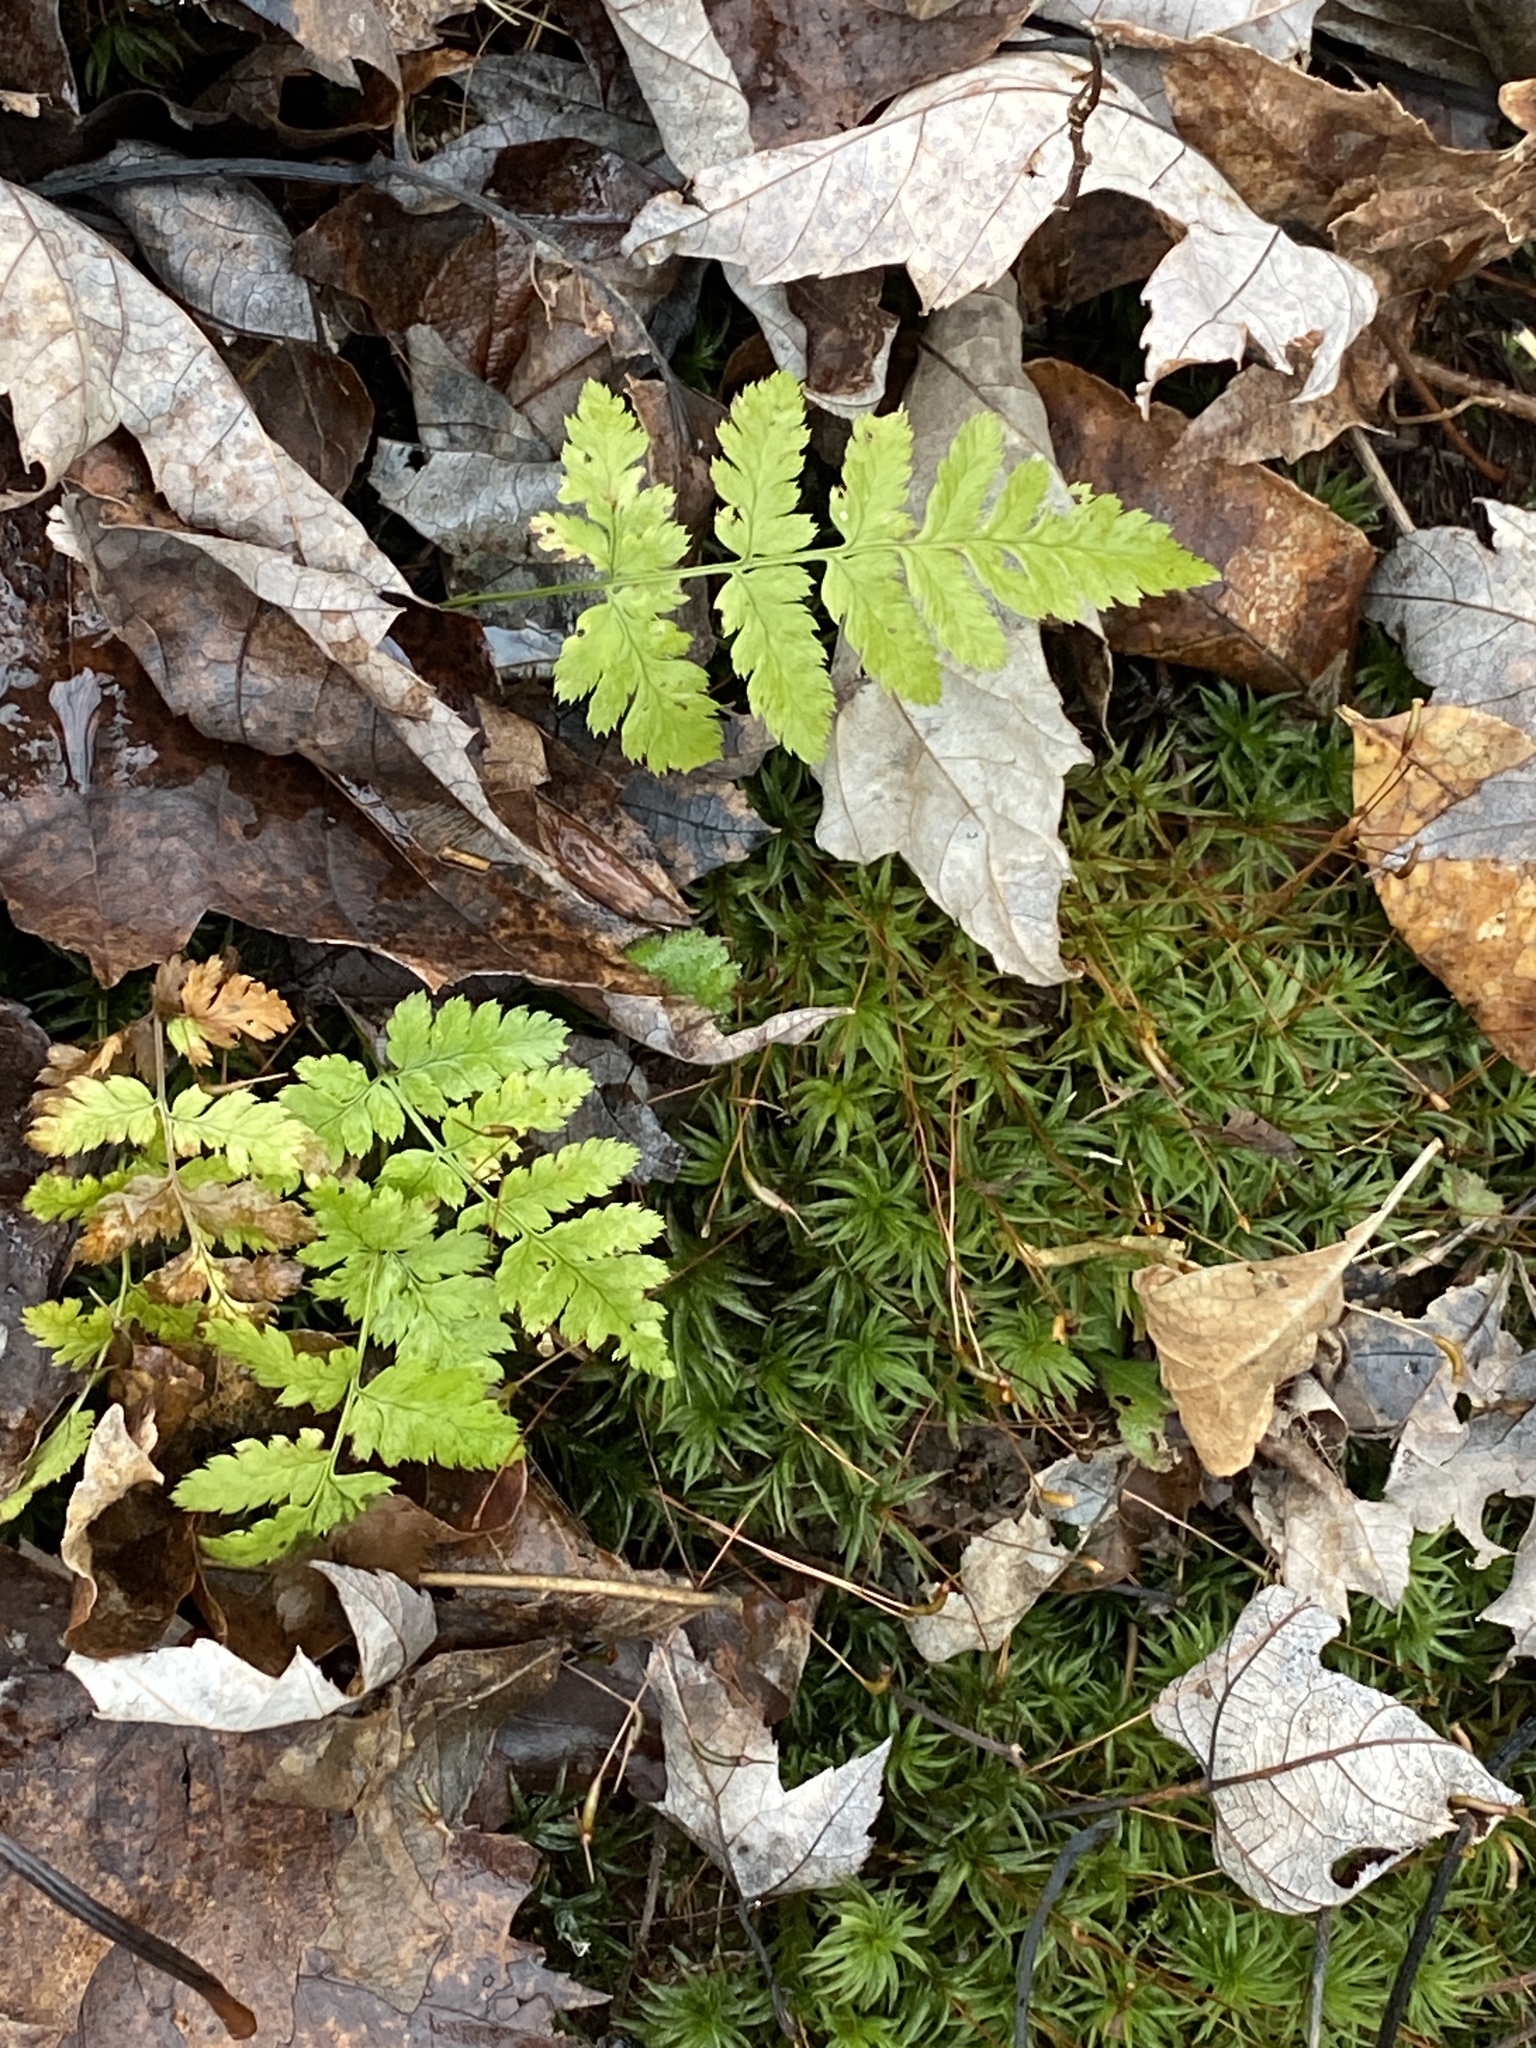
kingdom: Plantae
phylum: Tracheophyta
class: Polypodiopsida
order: Polypodiales
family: Dryopteridaceae
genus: Dryopteris
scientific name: Dryopteris intermedia
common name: Evergreen wood fern
